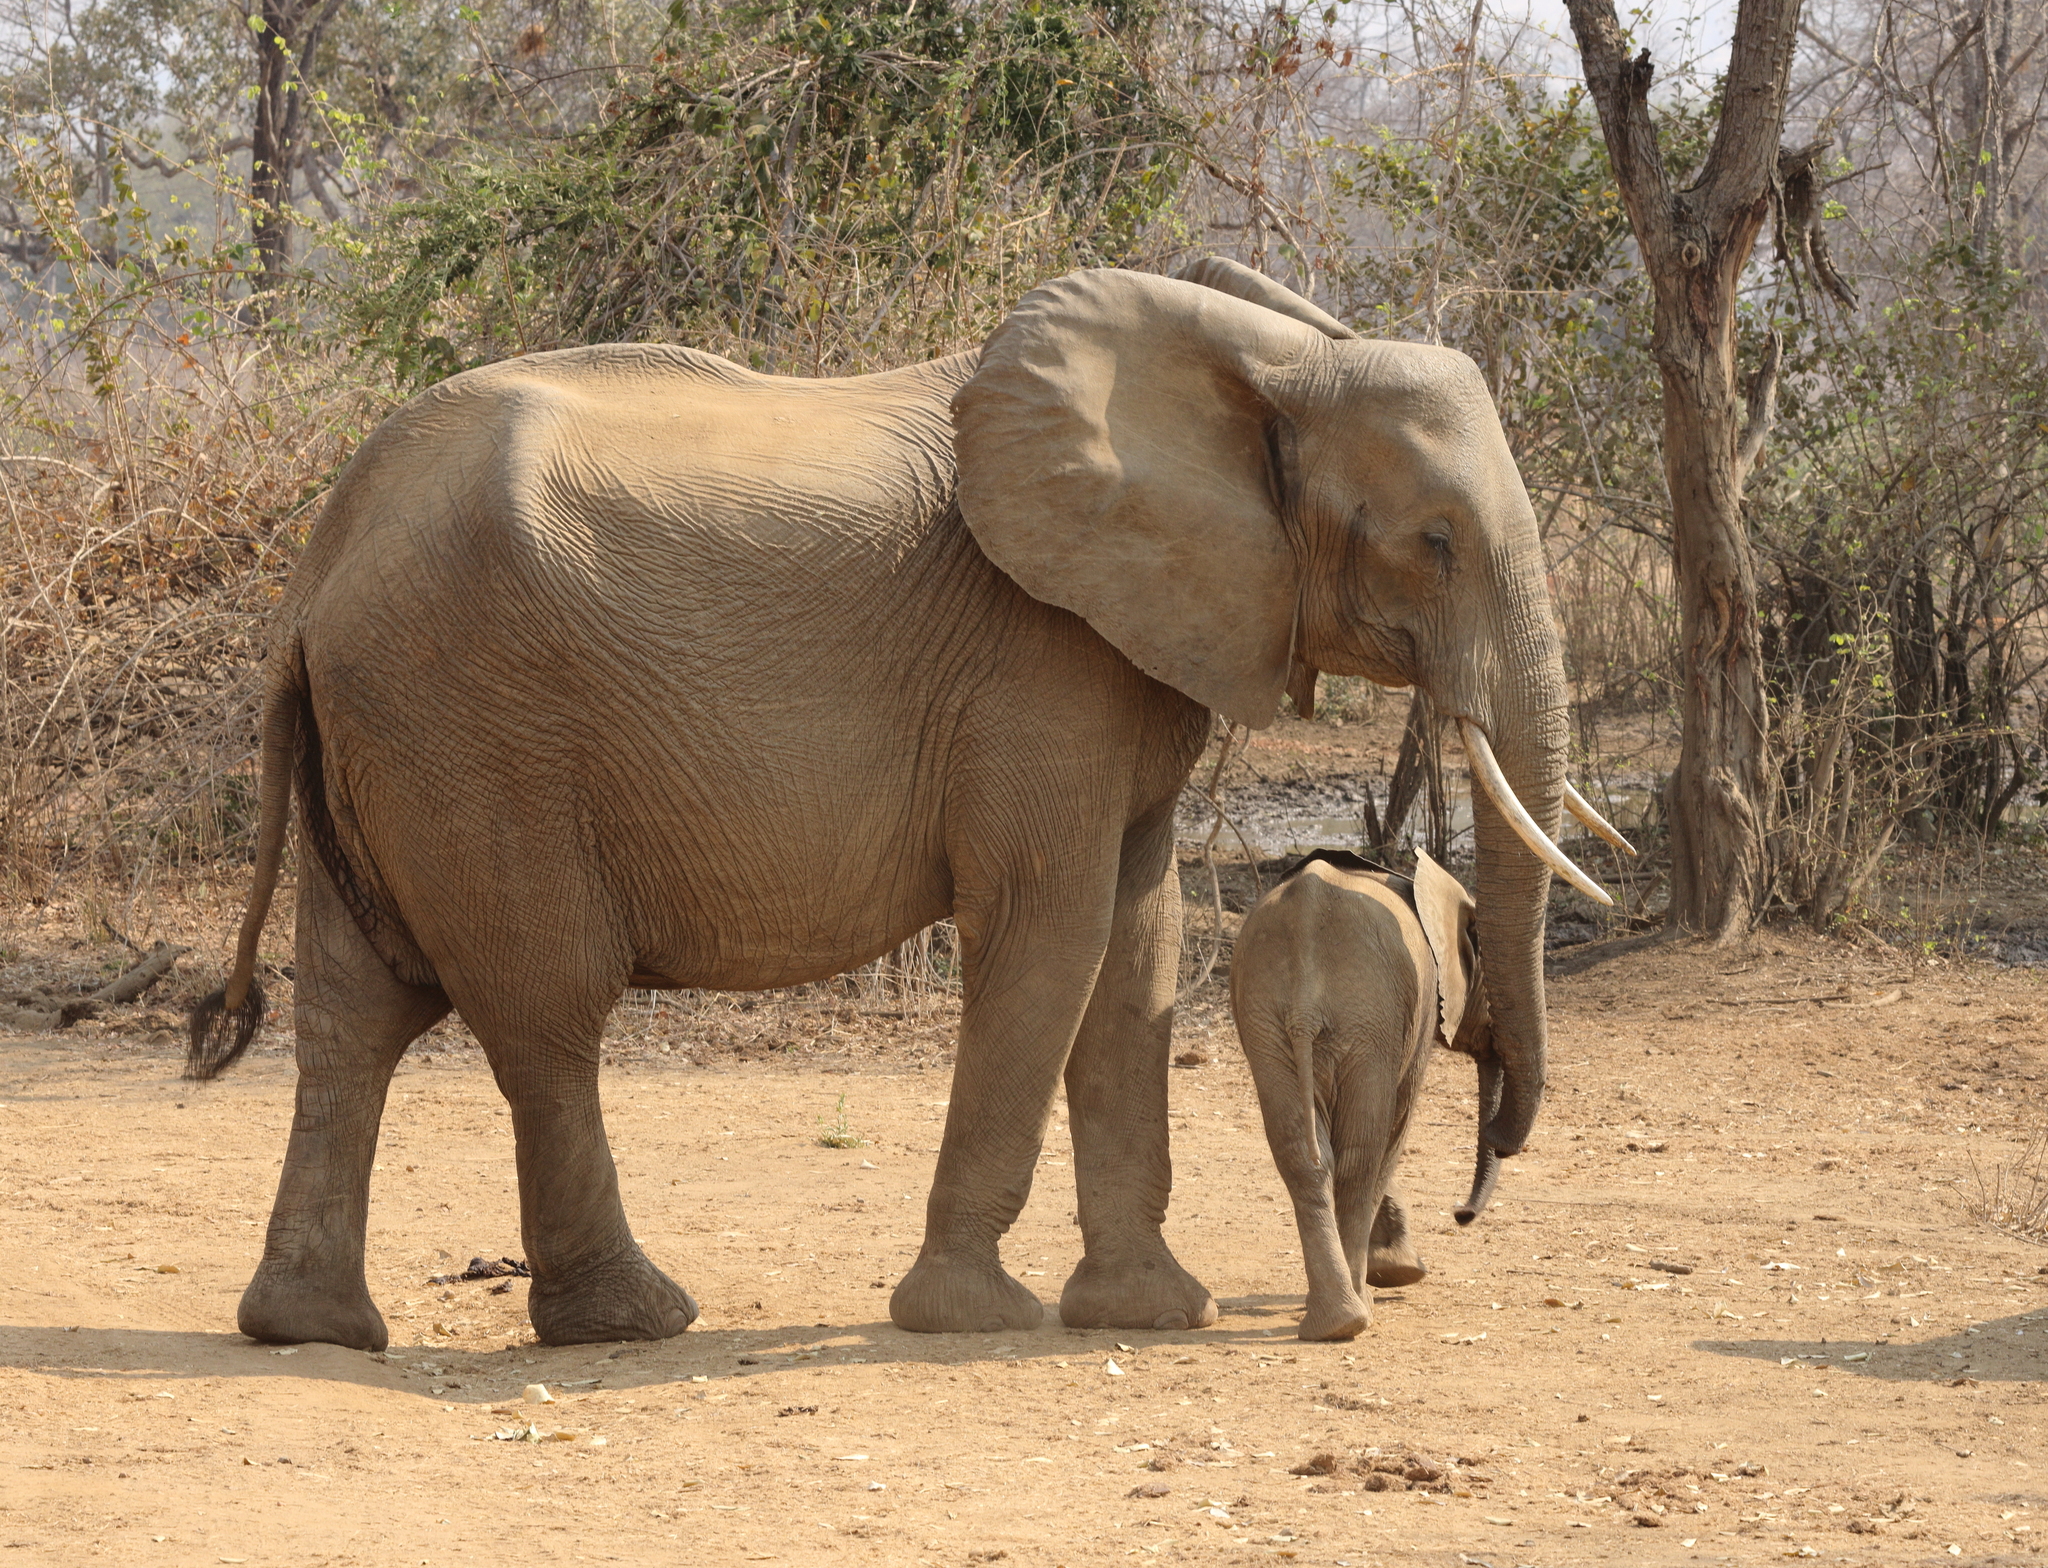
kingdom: Animalia
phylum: Chordata
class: Mammalia
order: Proboscidea
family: Elephantidae
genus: Loxodonta
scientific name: Loxodonta africana
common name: African elephant
